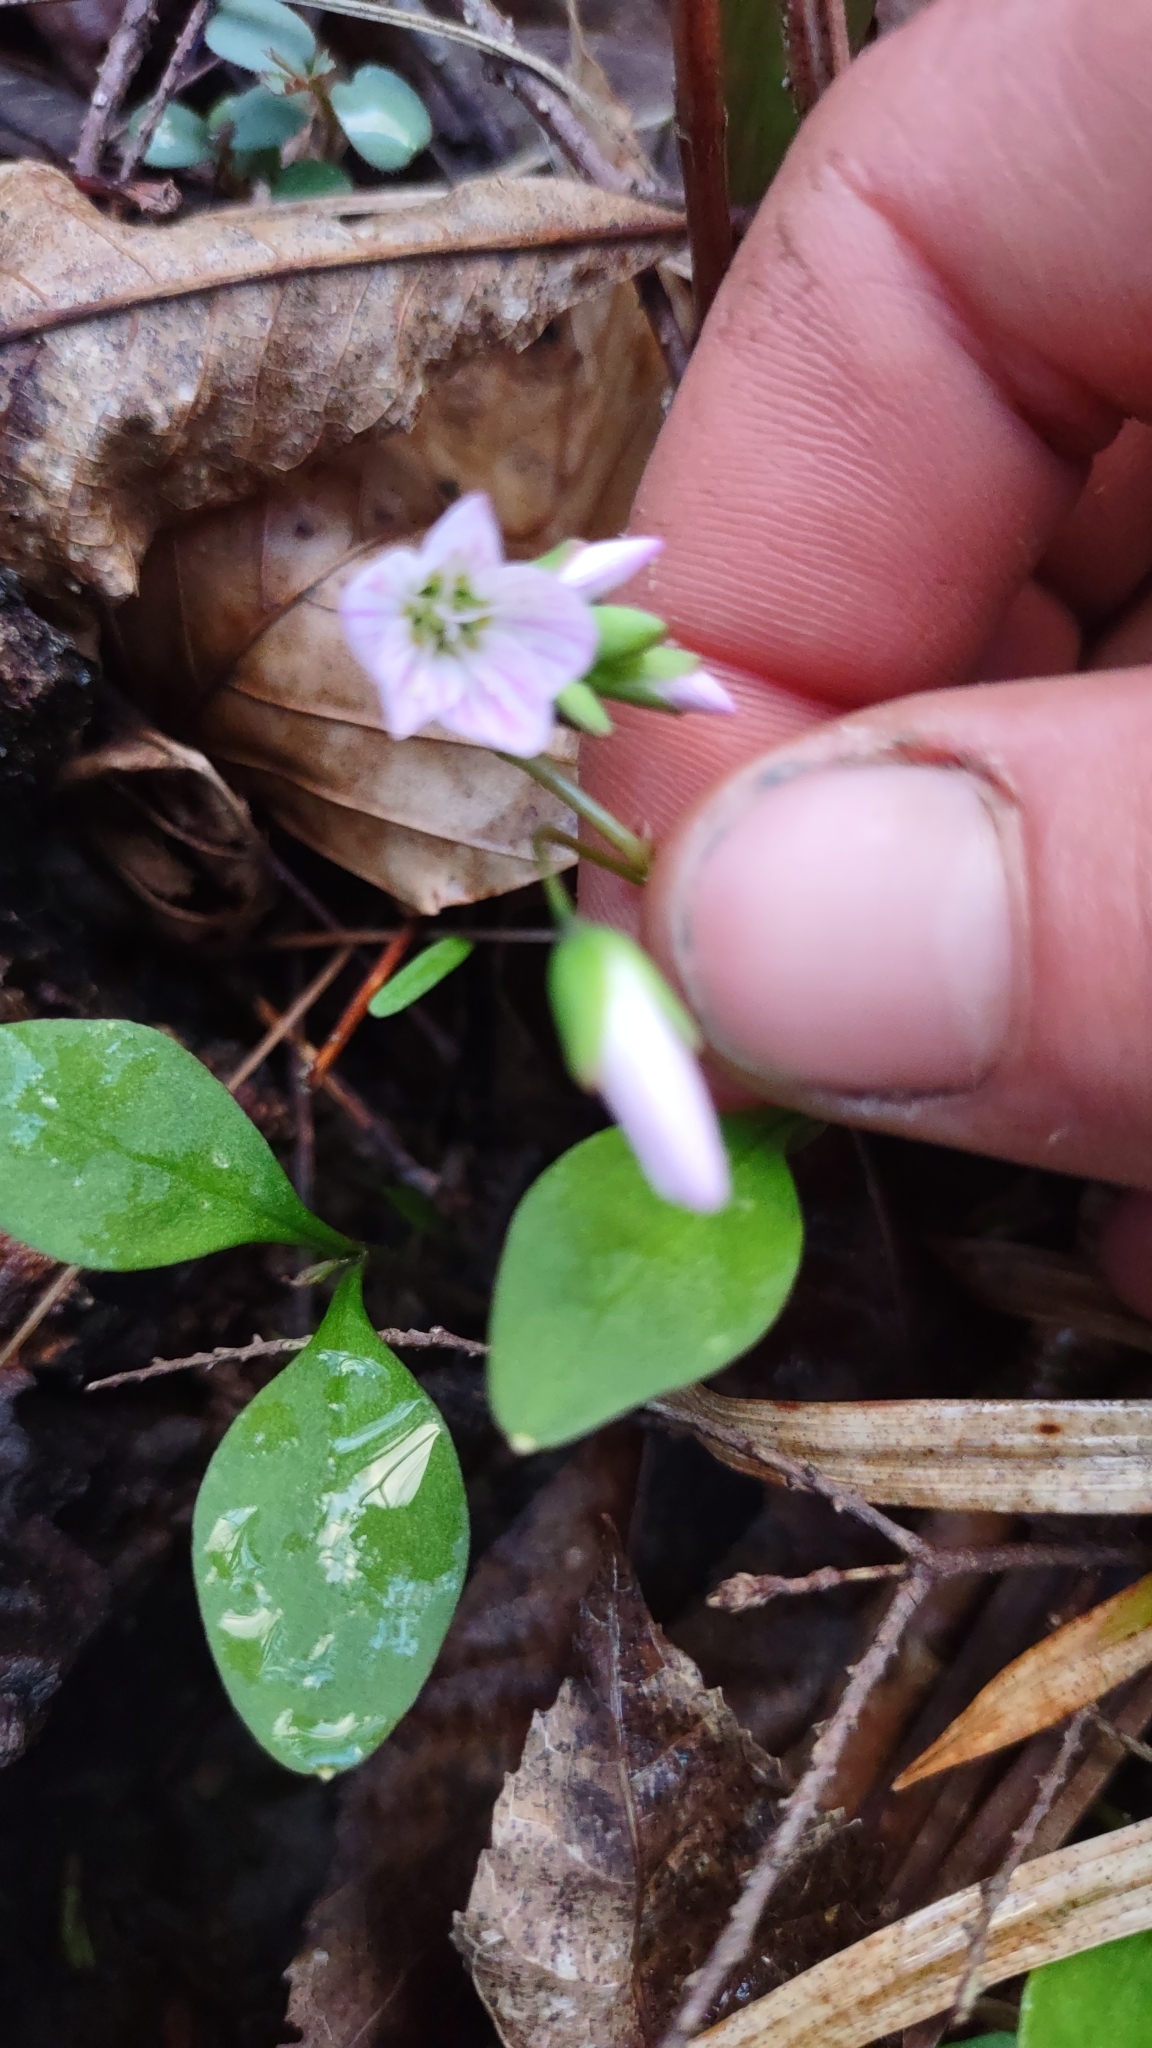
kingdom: Plantae
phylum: Tracheophyta
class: Magnoliopsida
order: Caryophyllales
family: Montiaceae
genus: Claytonia
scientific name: Claytonia caroliniana
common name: Carolina spring beauty
